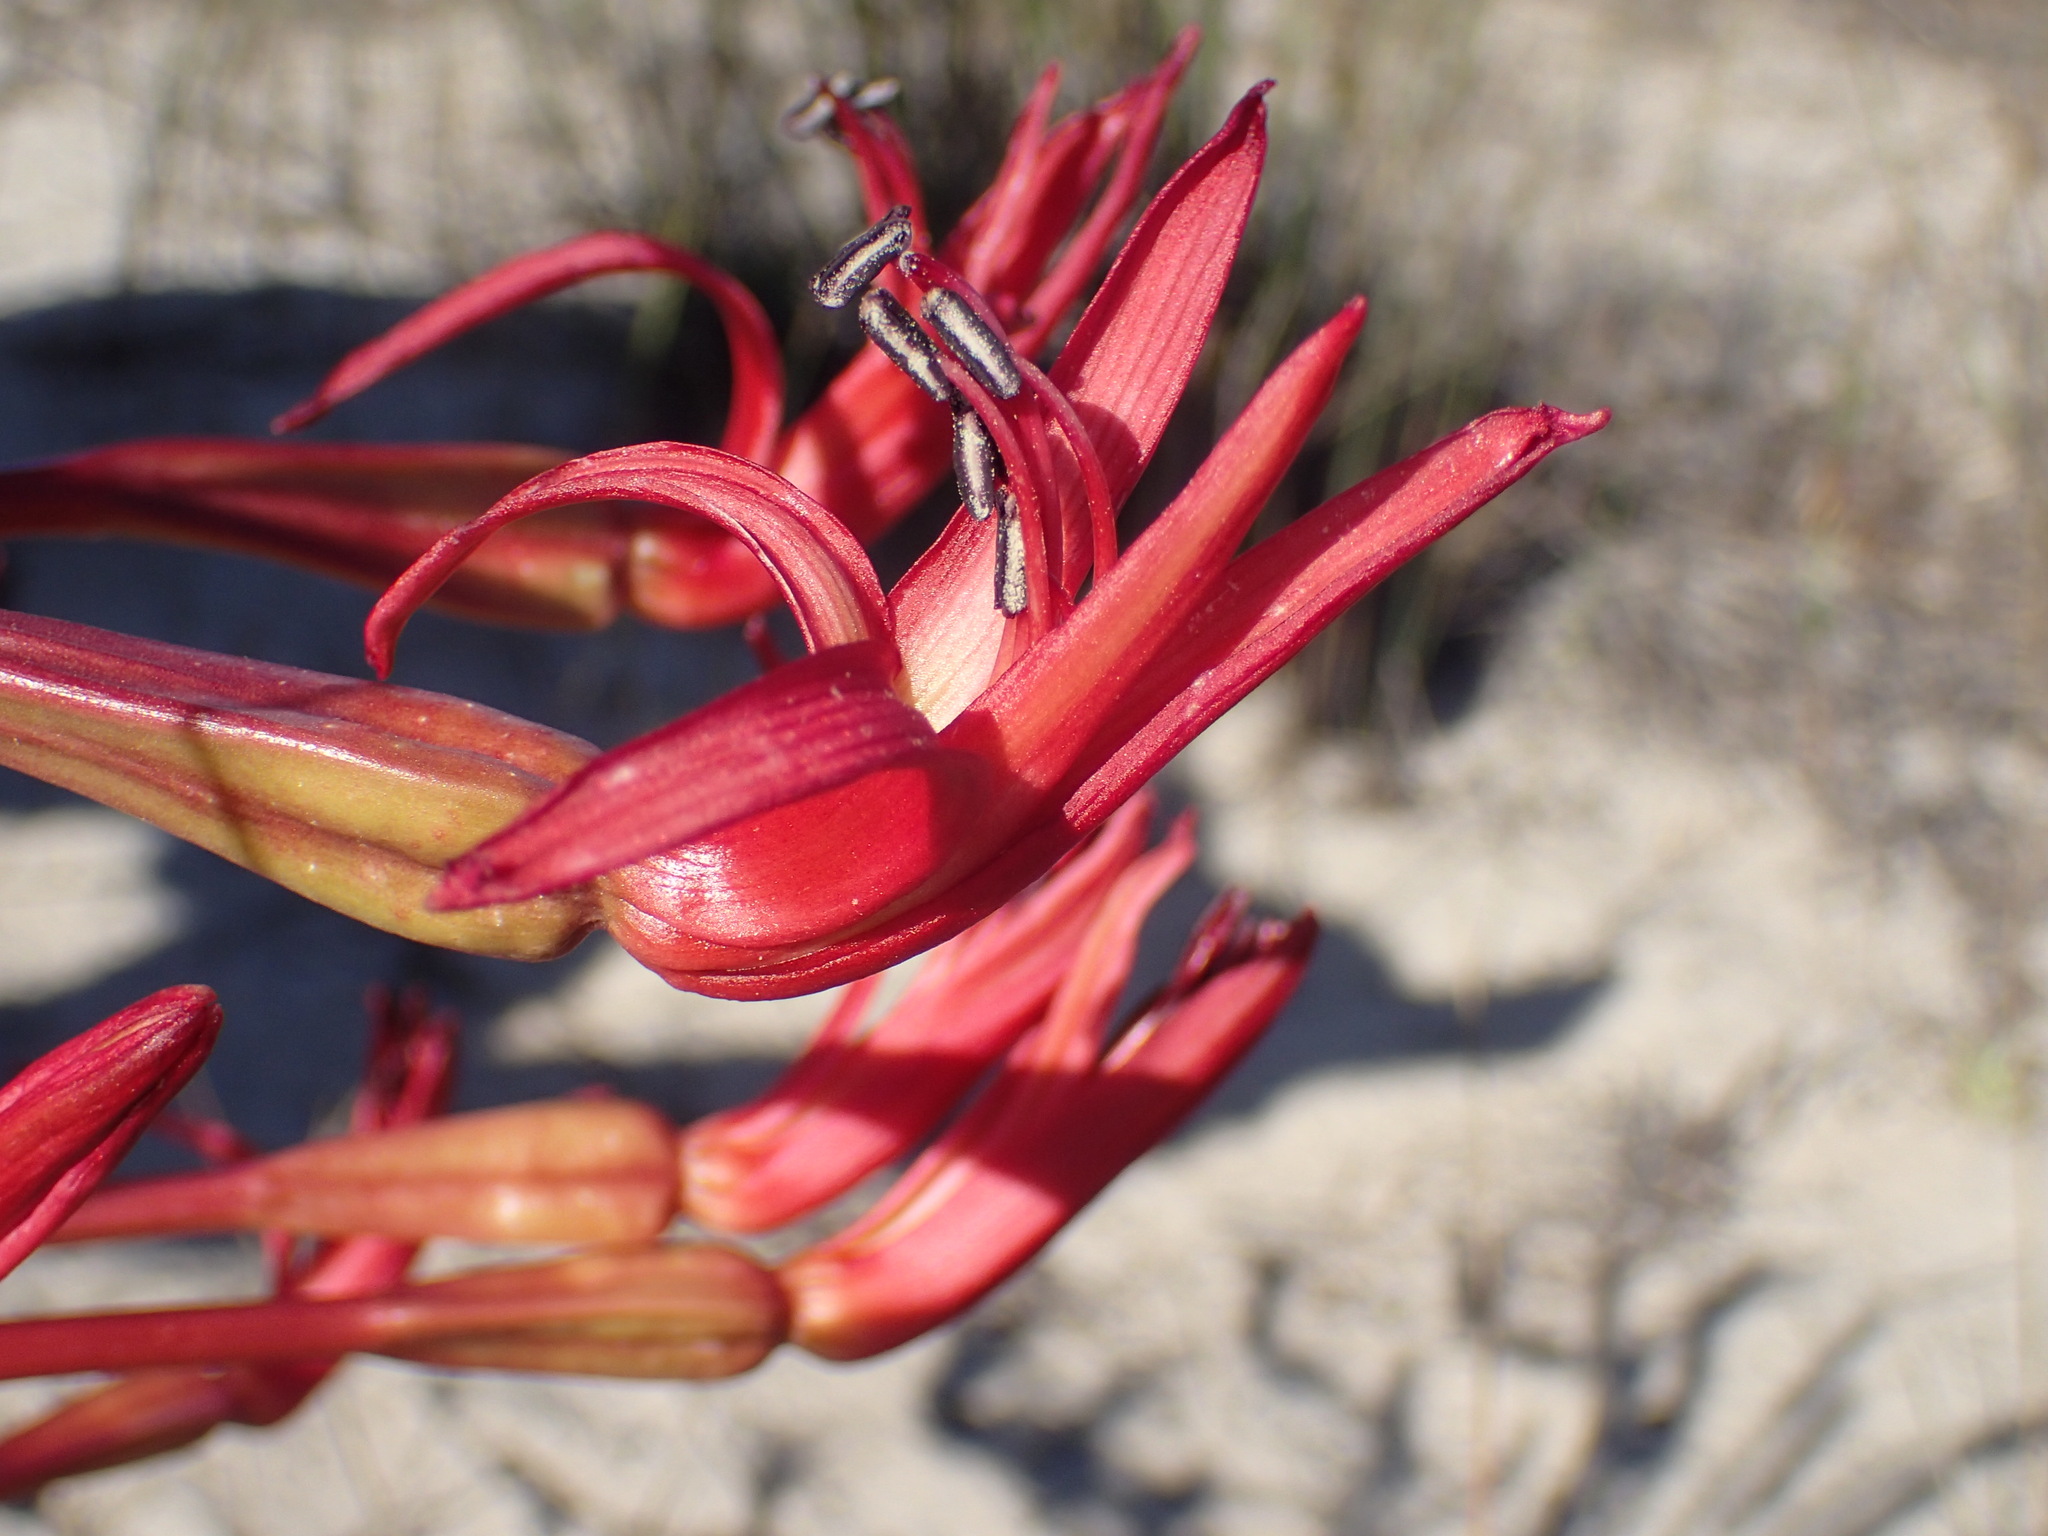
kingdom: Plantae
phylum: Tracheophyta
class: Liliopsida
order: Asparagales
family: Amaryllidaceae
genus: Brunsvigia
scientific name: Brunsvigia orientalis
